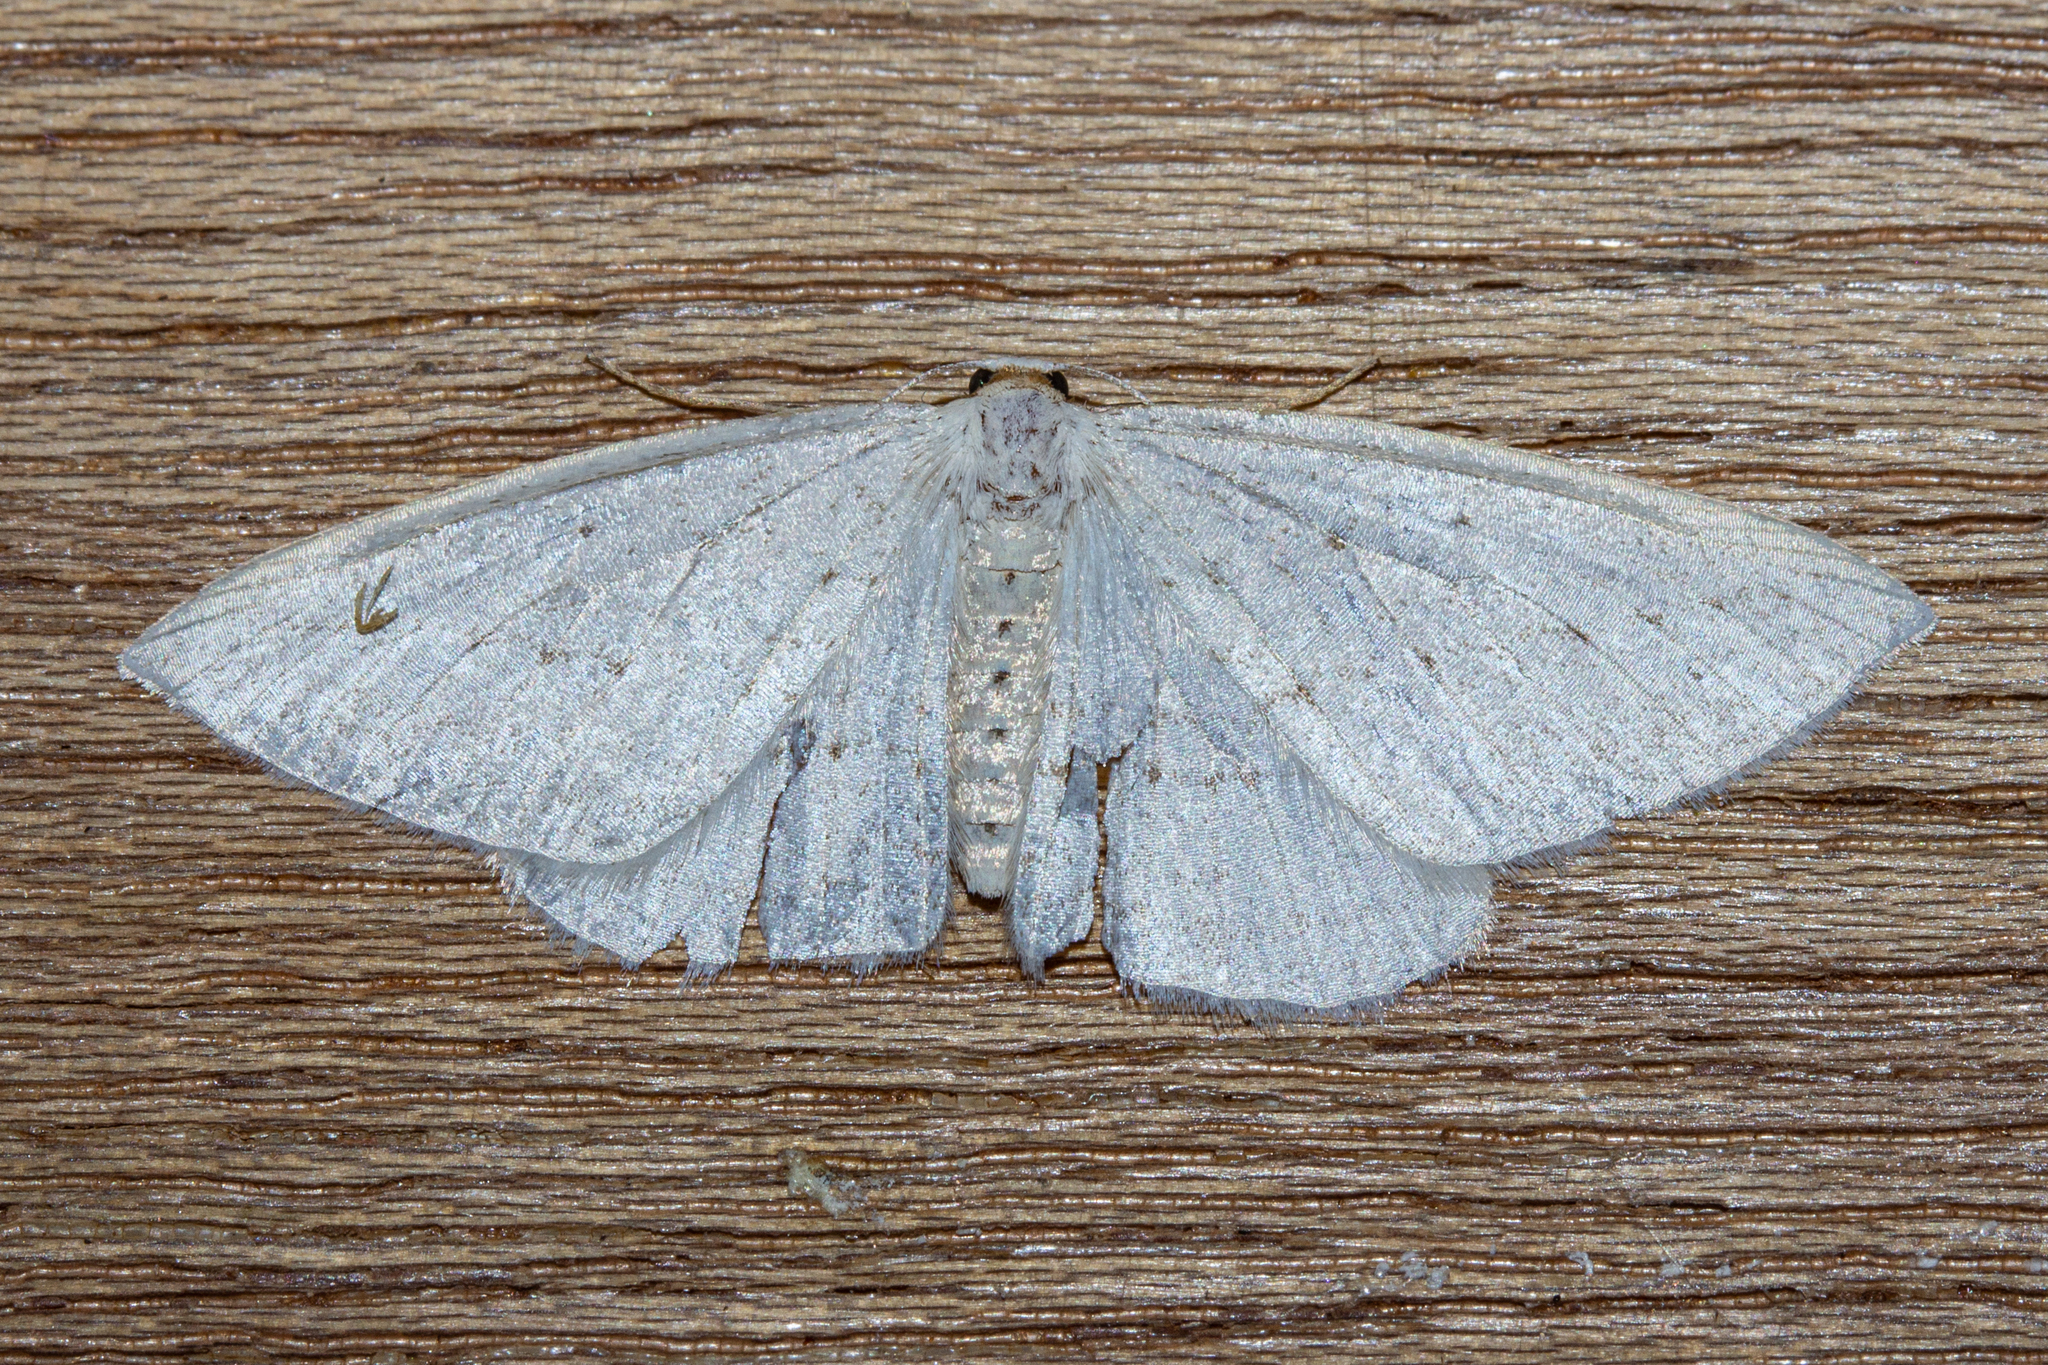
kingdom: Animalia
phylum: Arthropoda
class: Insecta
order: Lepidoptera
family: Geometridae
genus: Orthoclydon
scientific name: Orthoclydon praefectata
